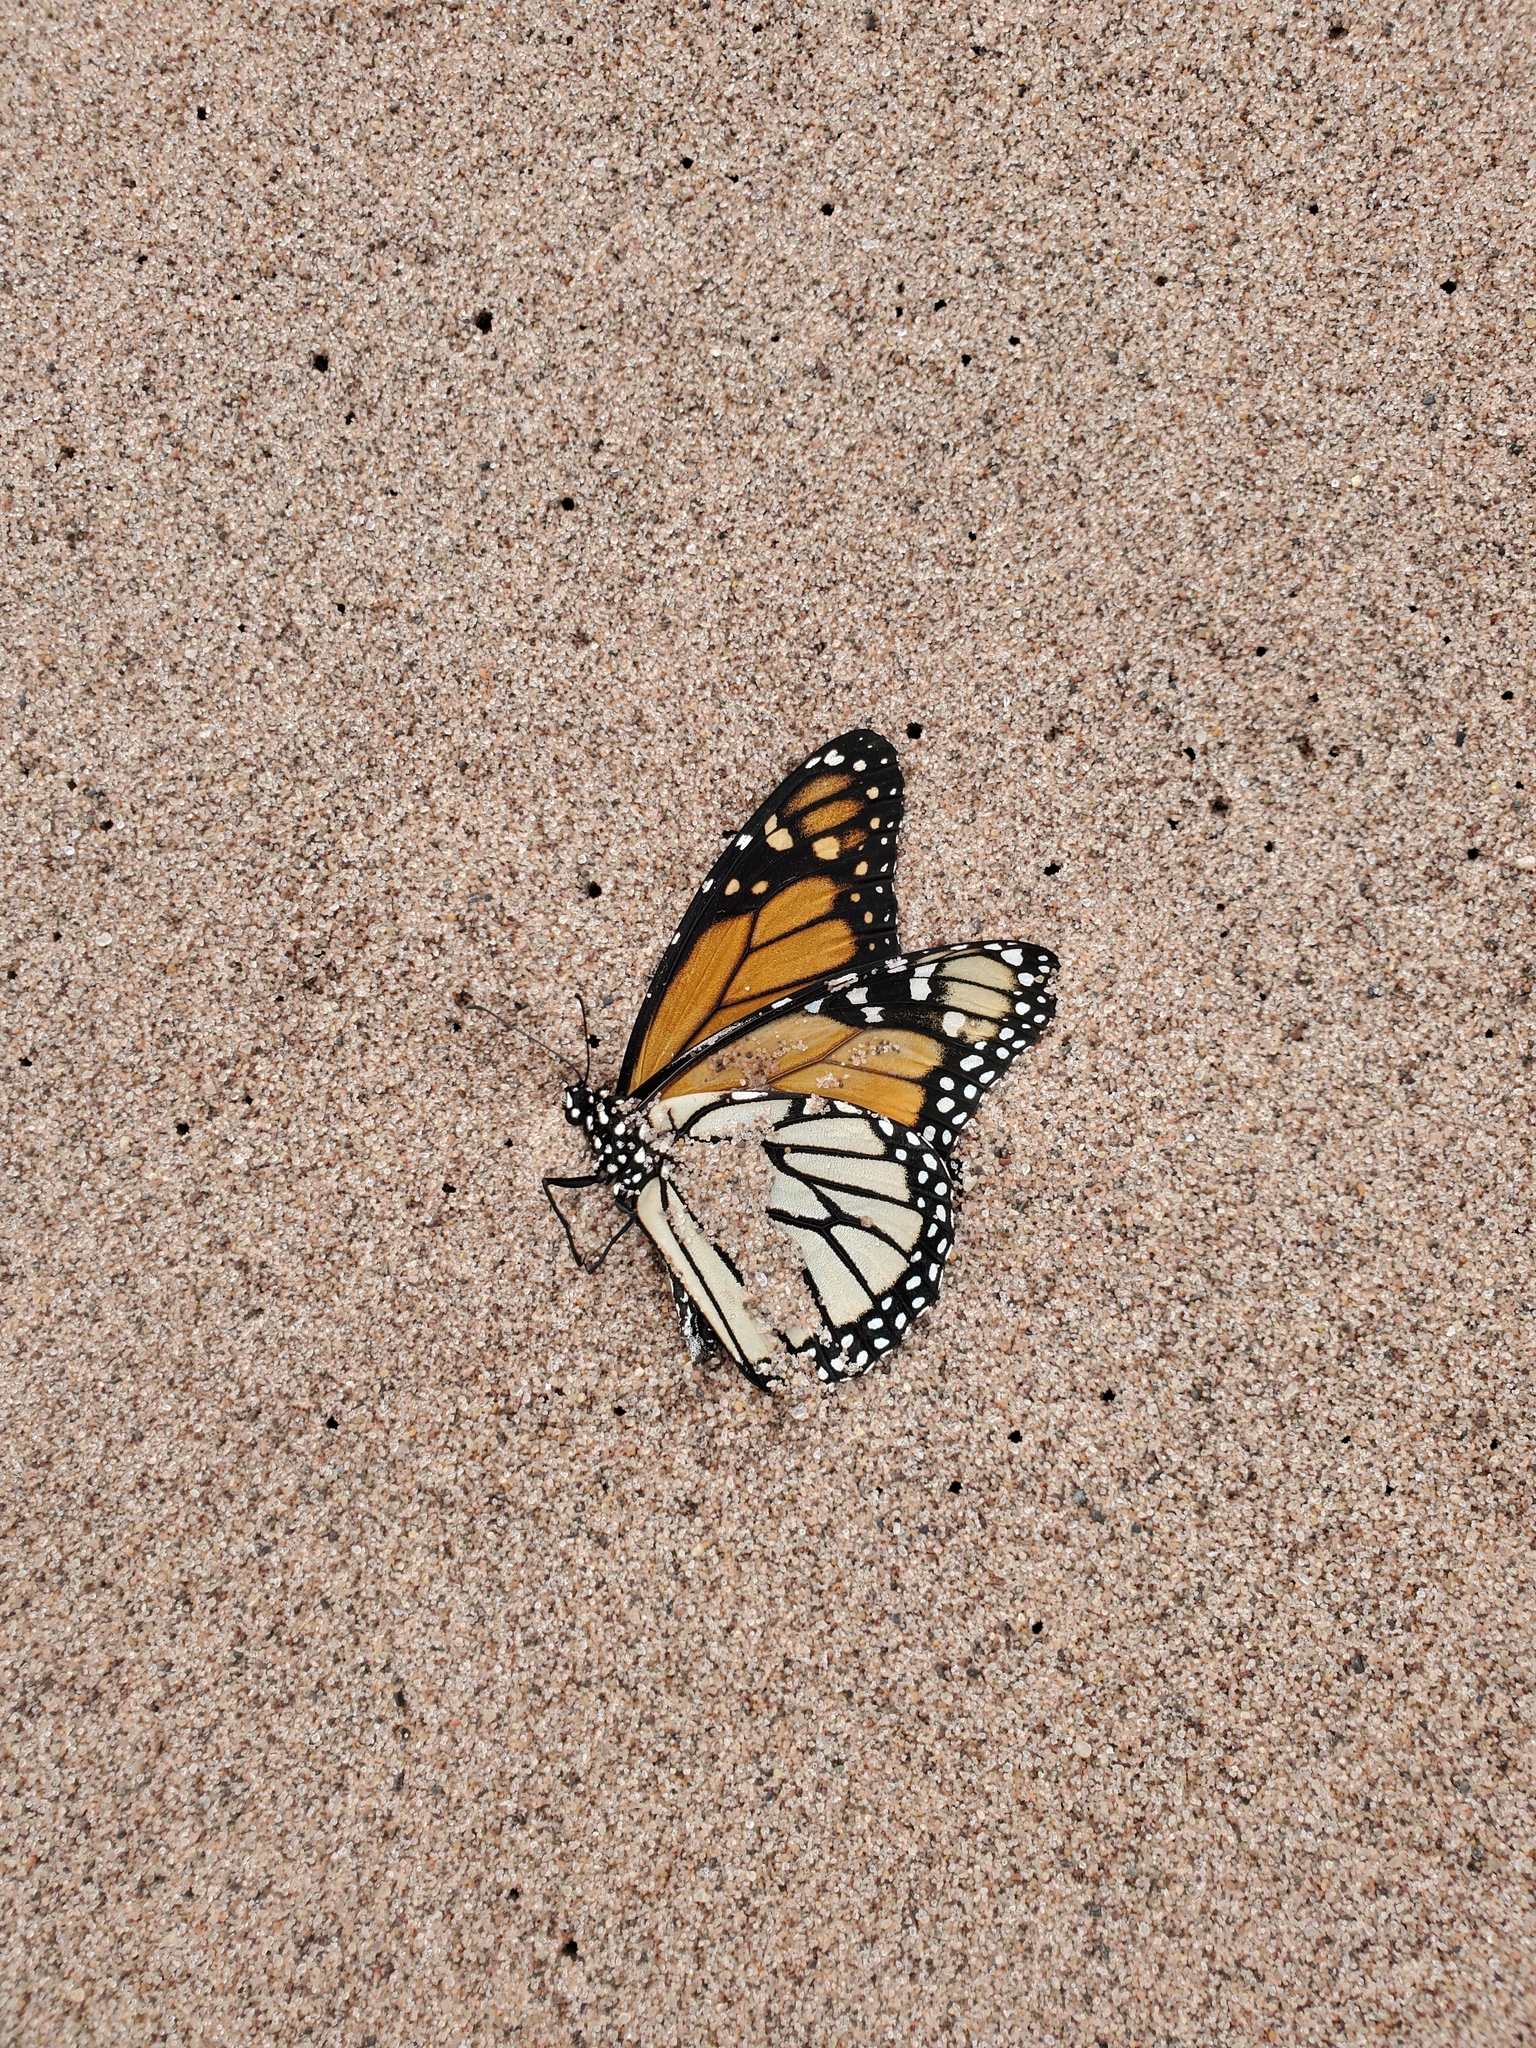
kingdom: Animalia
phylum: Arthropoda
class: Insecta
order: Lepidoptera
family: Nymphalidae
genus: Danaus
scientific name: Danaus plexippus
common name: Monarch
